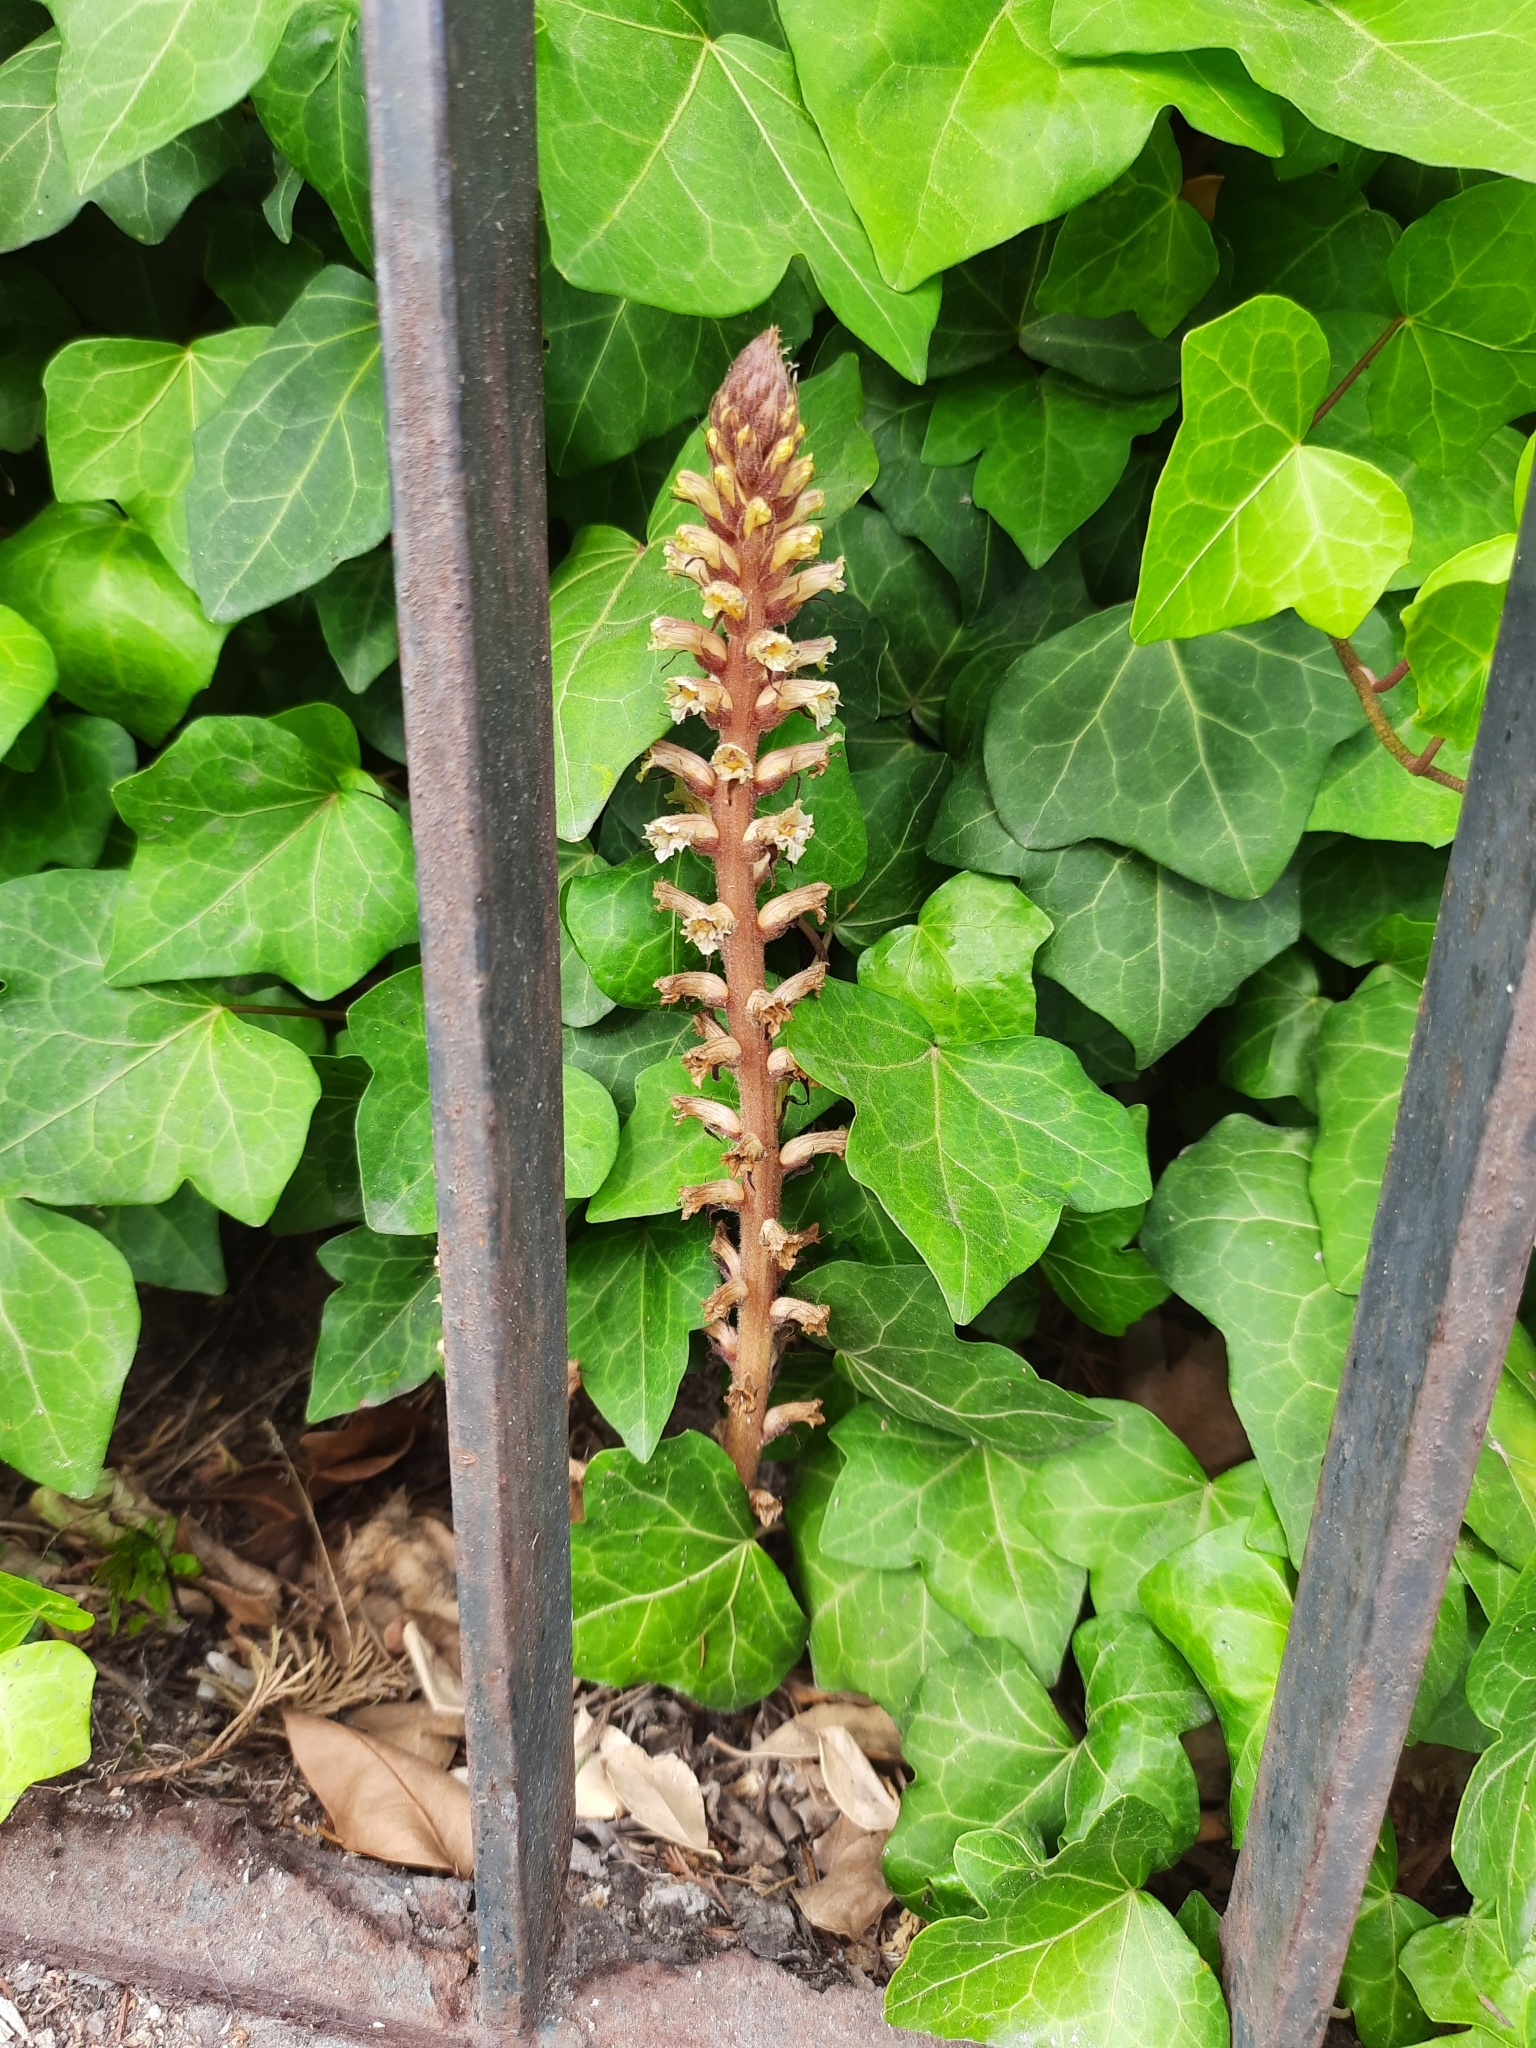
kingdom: Plantae
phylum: Tracheophyta
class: Magnoliopsida
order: Lamiales
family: Orobanchaceae
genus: Orobanche
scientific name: Orobanche hederae
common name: Ivy broomrape
